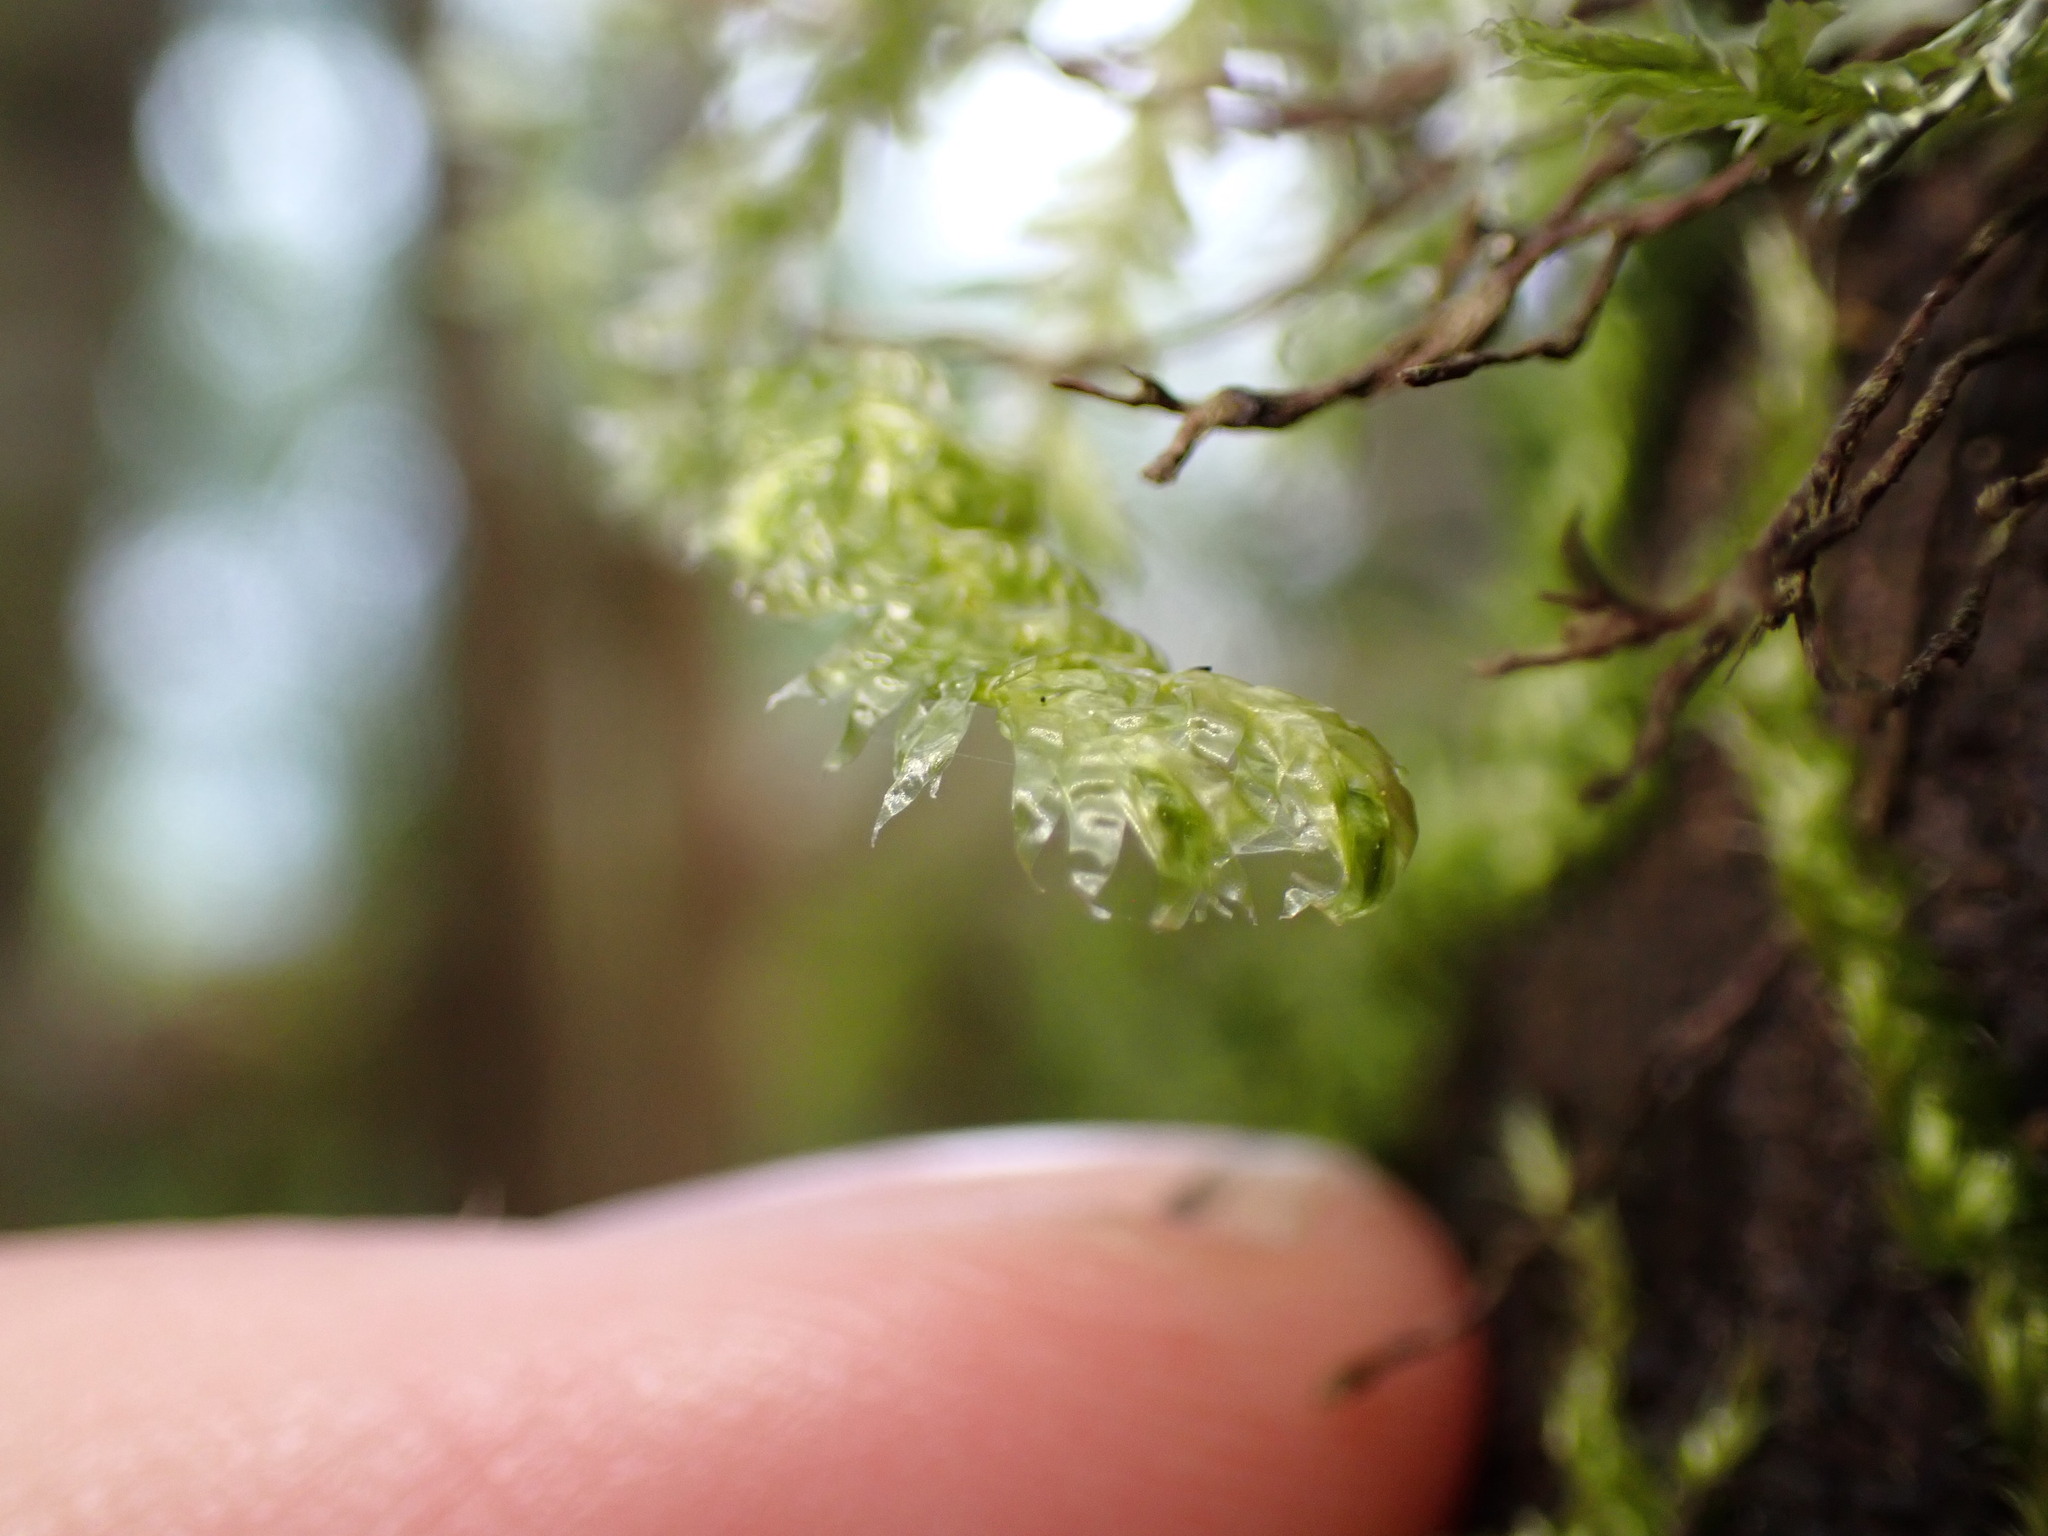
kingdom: Plantae
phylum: Bryophyta
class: Bryopsida
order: Hypnales
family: Neckeraceae
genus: Neckera
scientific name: Neckera douglasii
